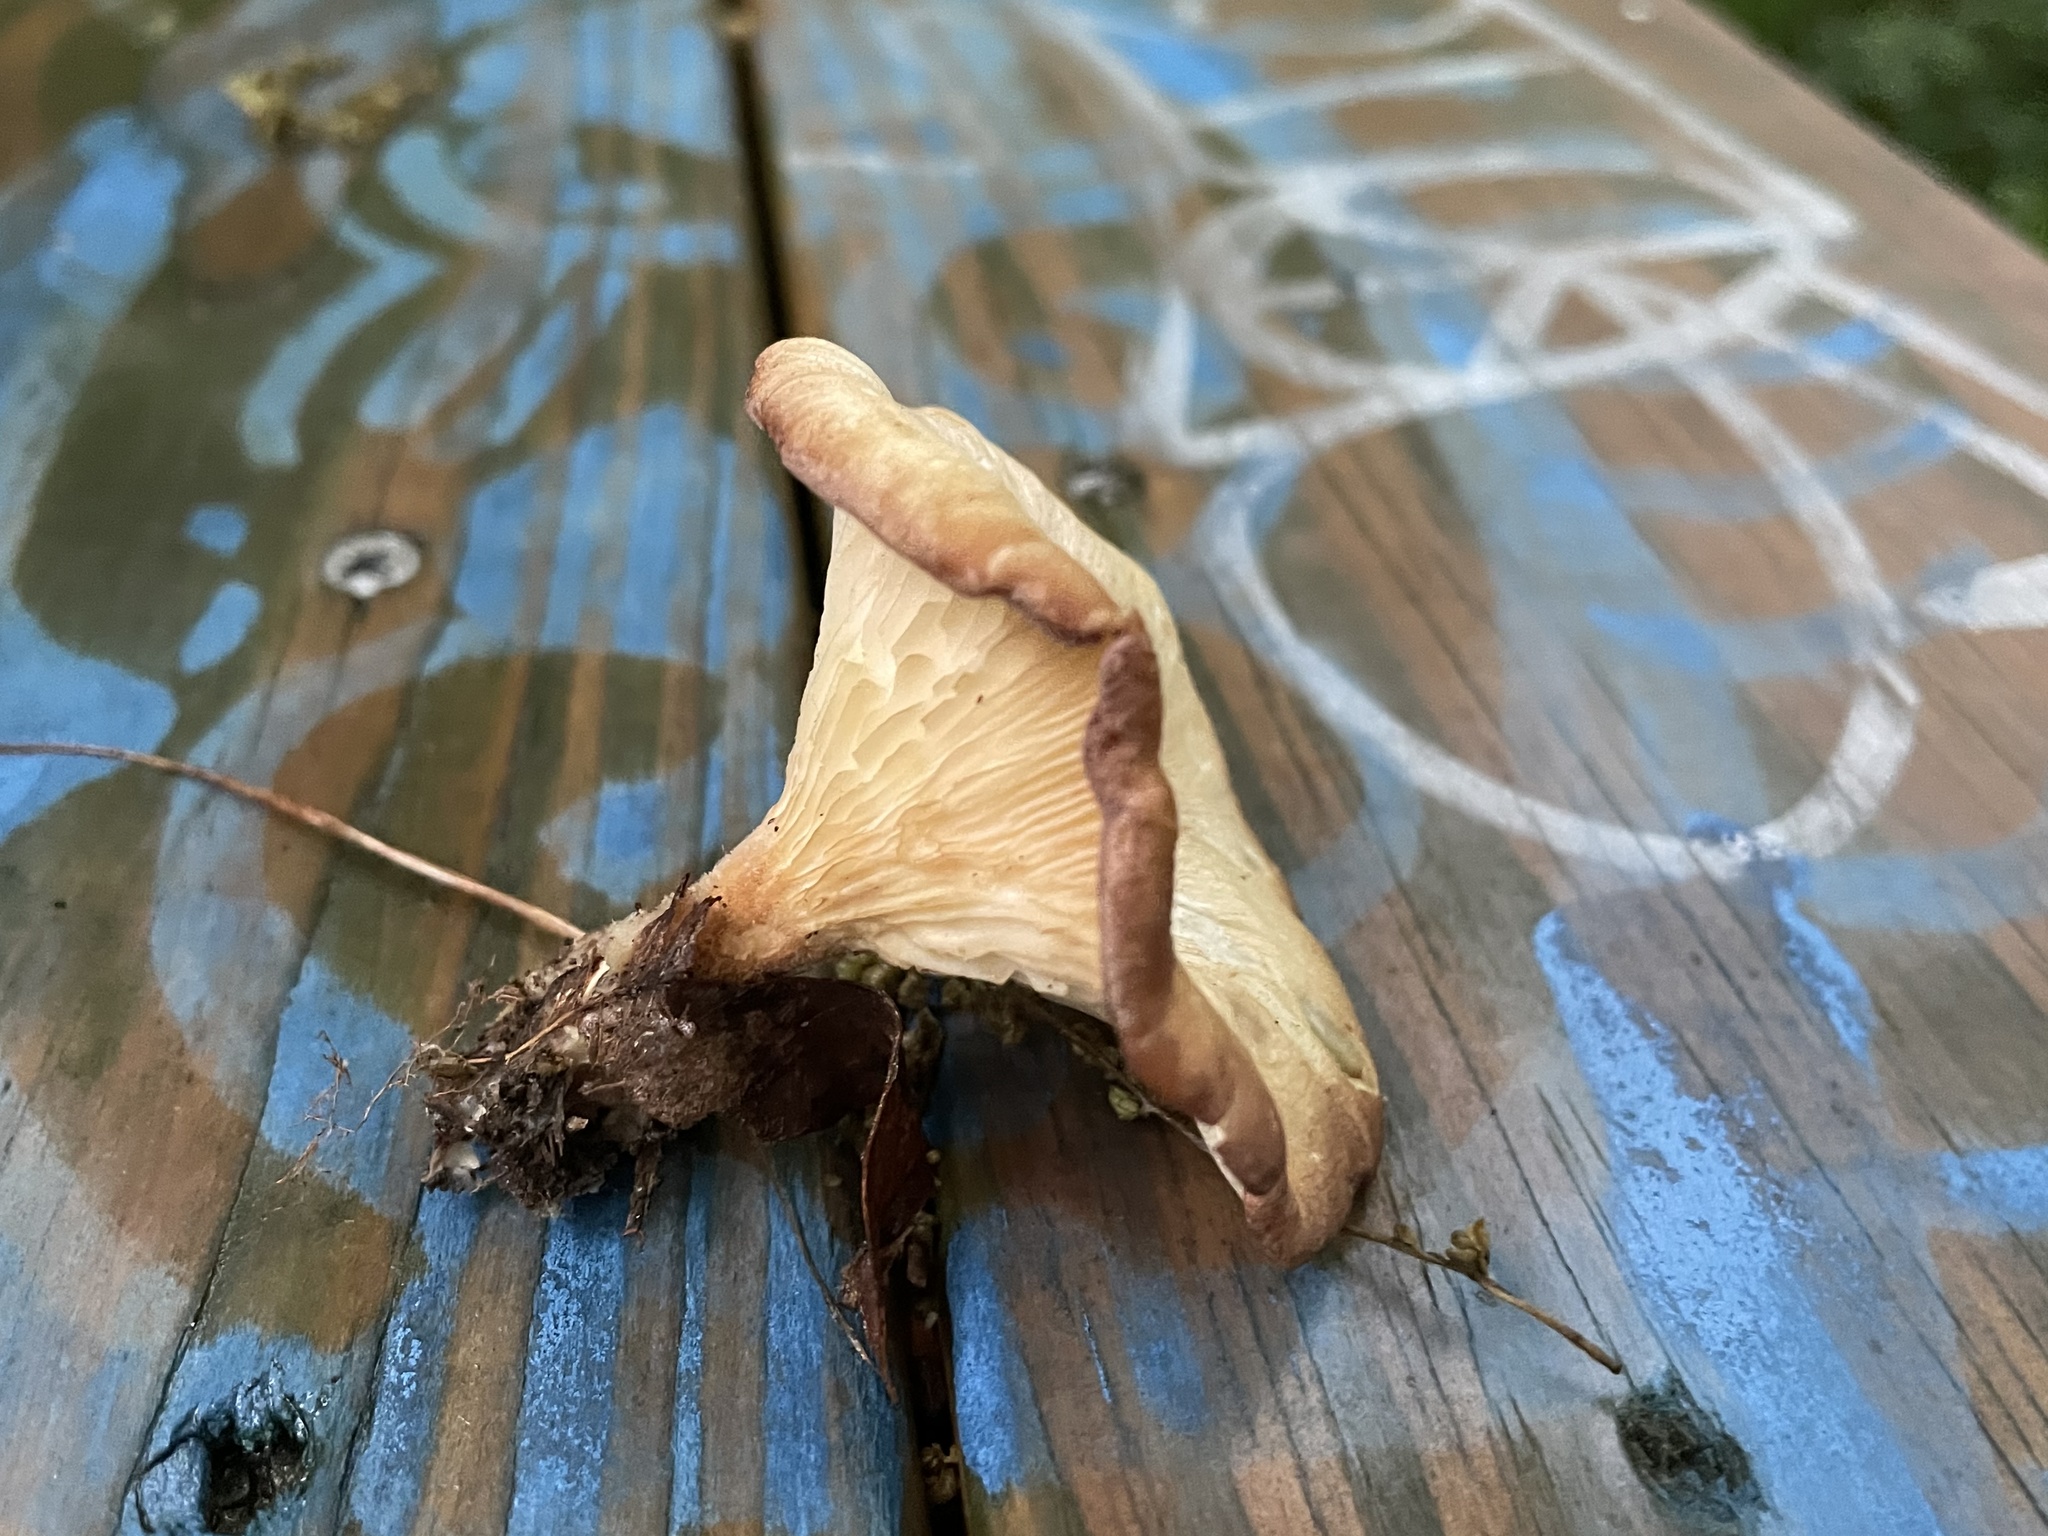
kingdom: Fungi
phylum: Basidiomycota
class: Agaricomycetes
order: Polyporales
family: Panaceae
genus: Panus
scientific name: Panus conchatus
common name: Lilac oysterling
